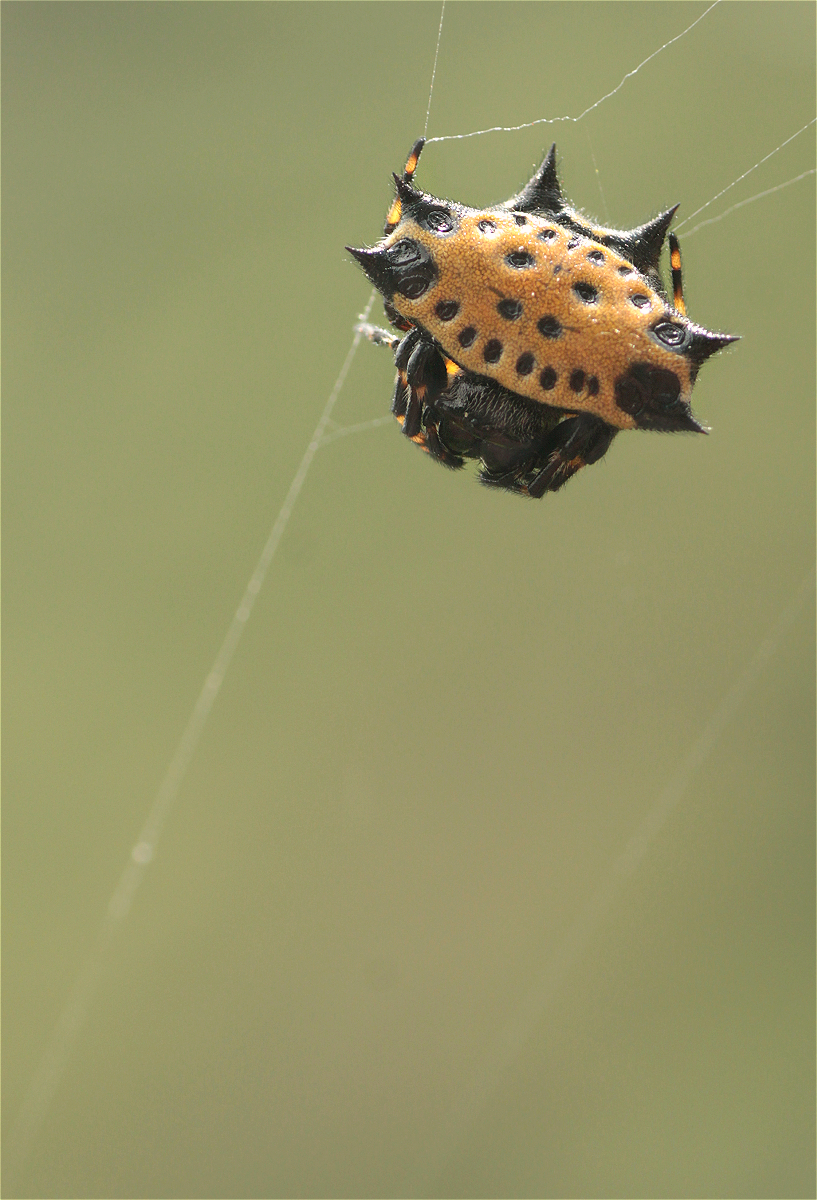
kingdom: Animalia
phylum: Arthropoda
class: Arachnida
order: Araneae
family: Araneidae
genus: Gasteracantha
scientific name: Gasteracantha cancriformis
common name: Orb weavers
